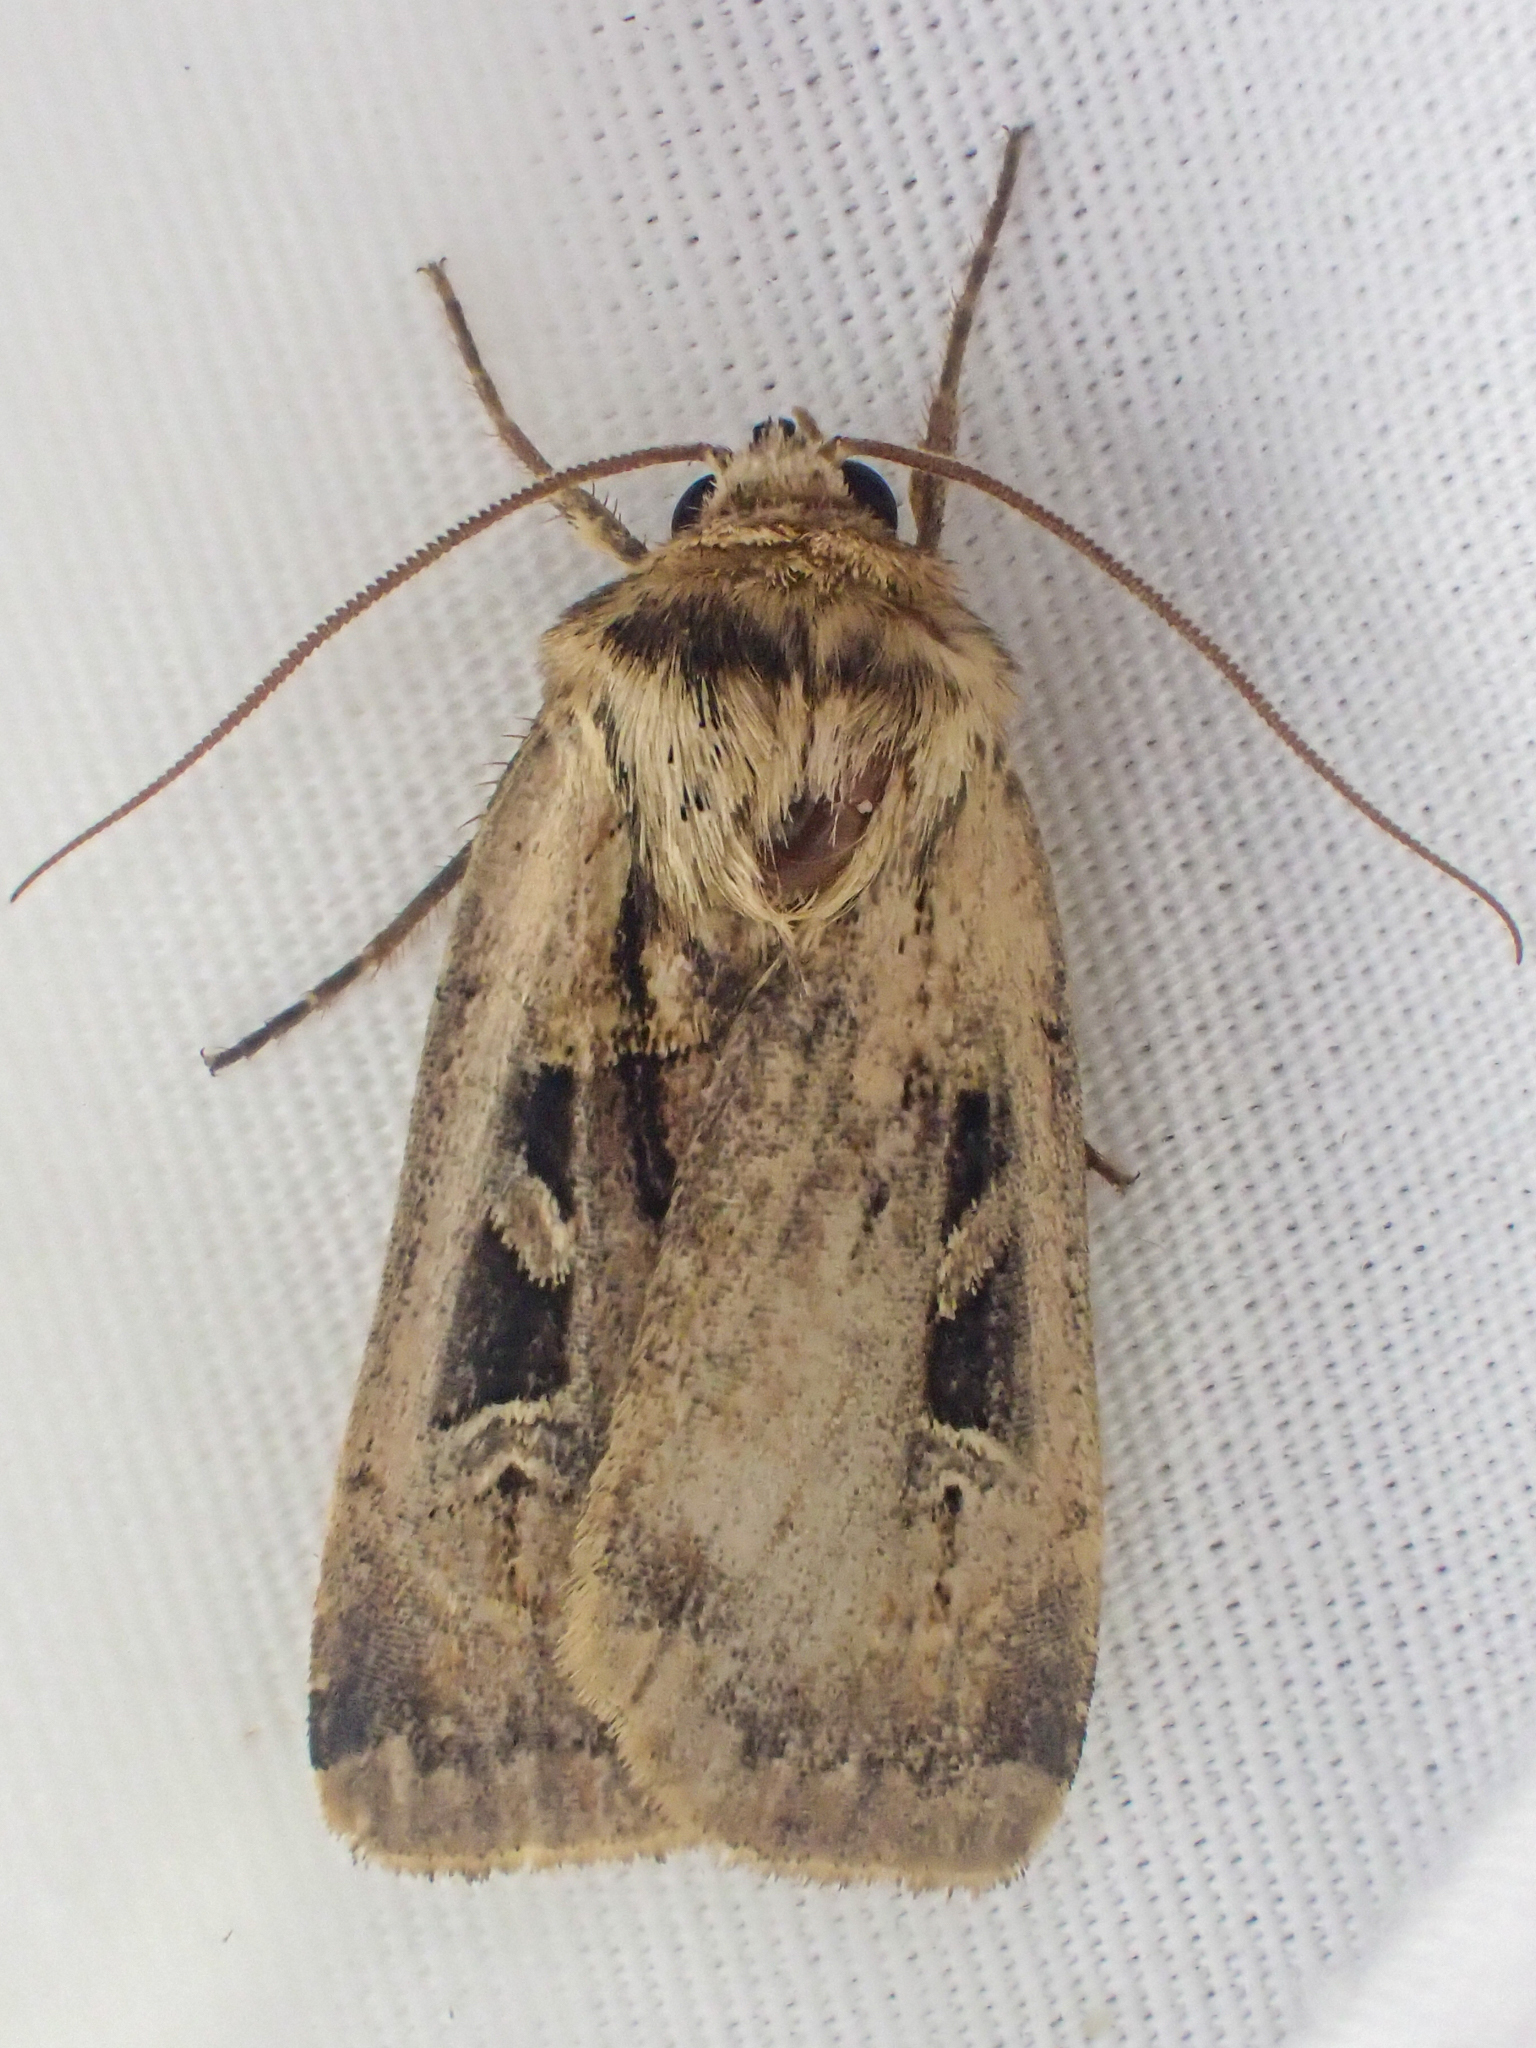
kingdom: Animalia
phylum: Arthropoda
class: Insecta
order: Lepidoptera
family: Noctuidae
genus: Pseudohermonassa
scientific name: Pseudohermonassa flavotincta
